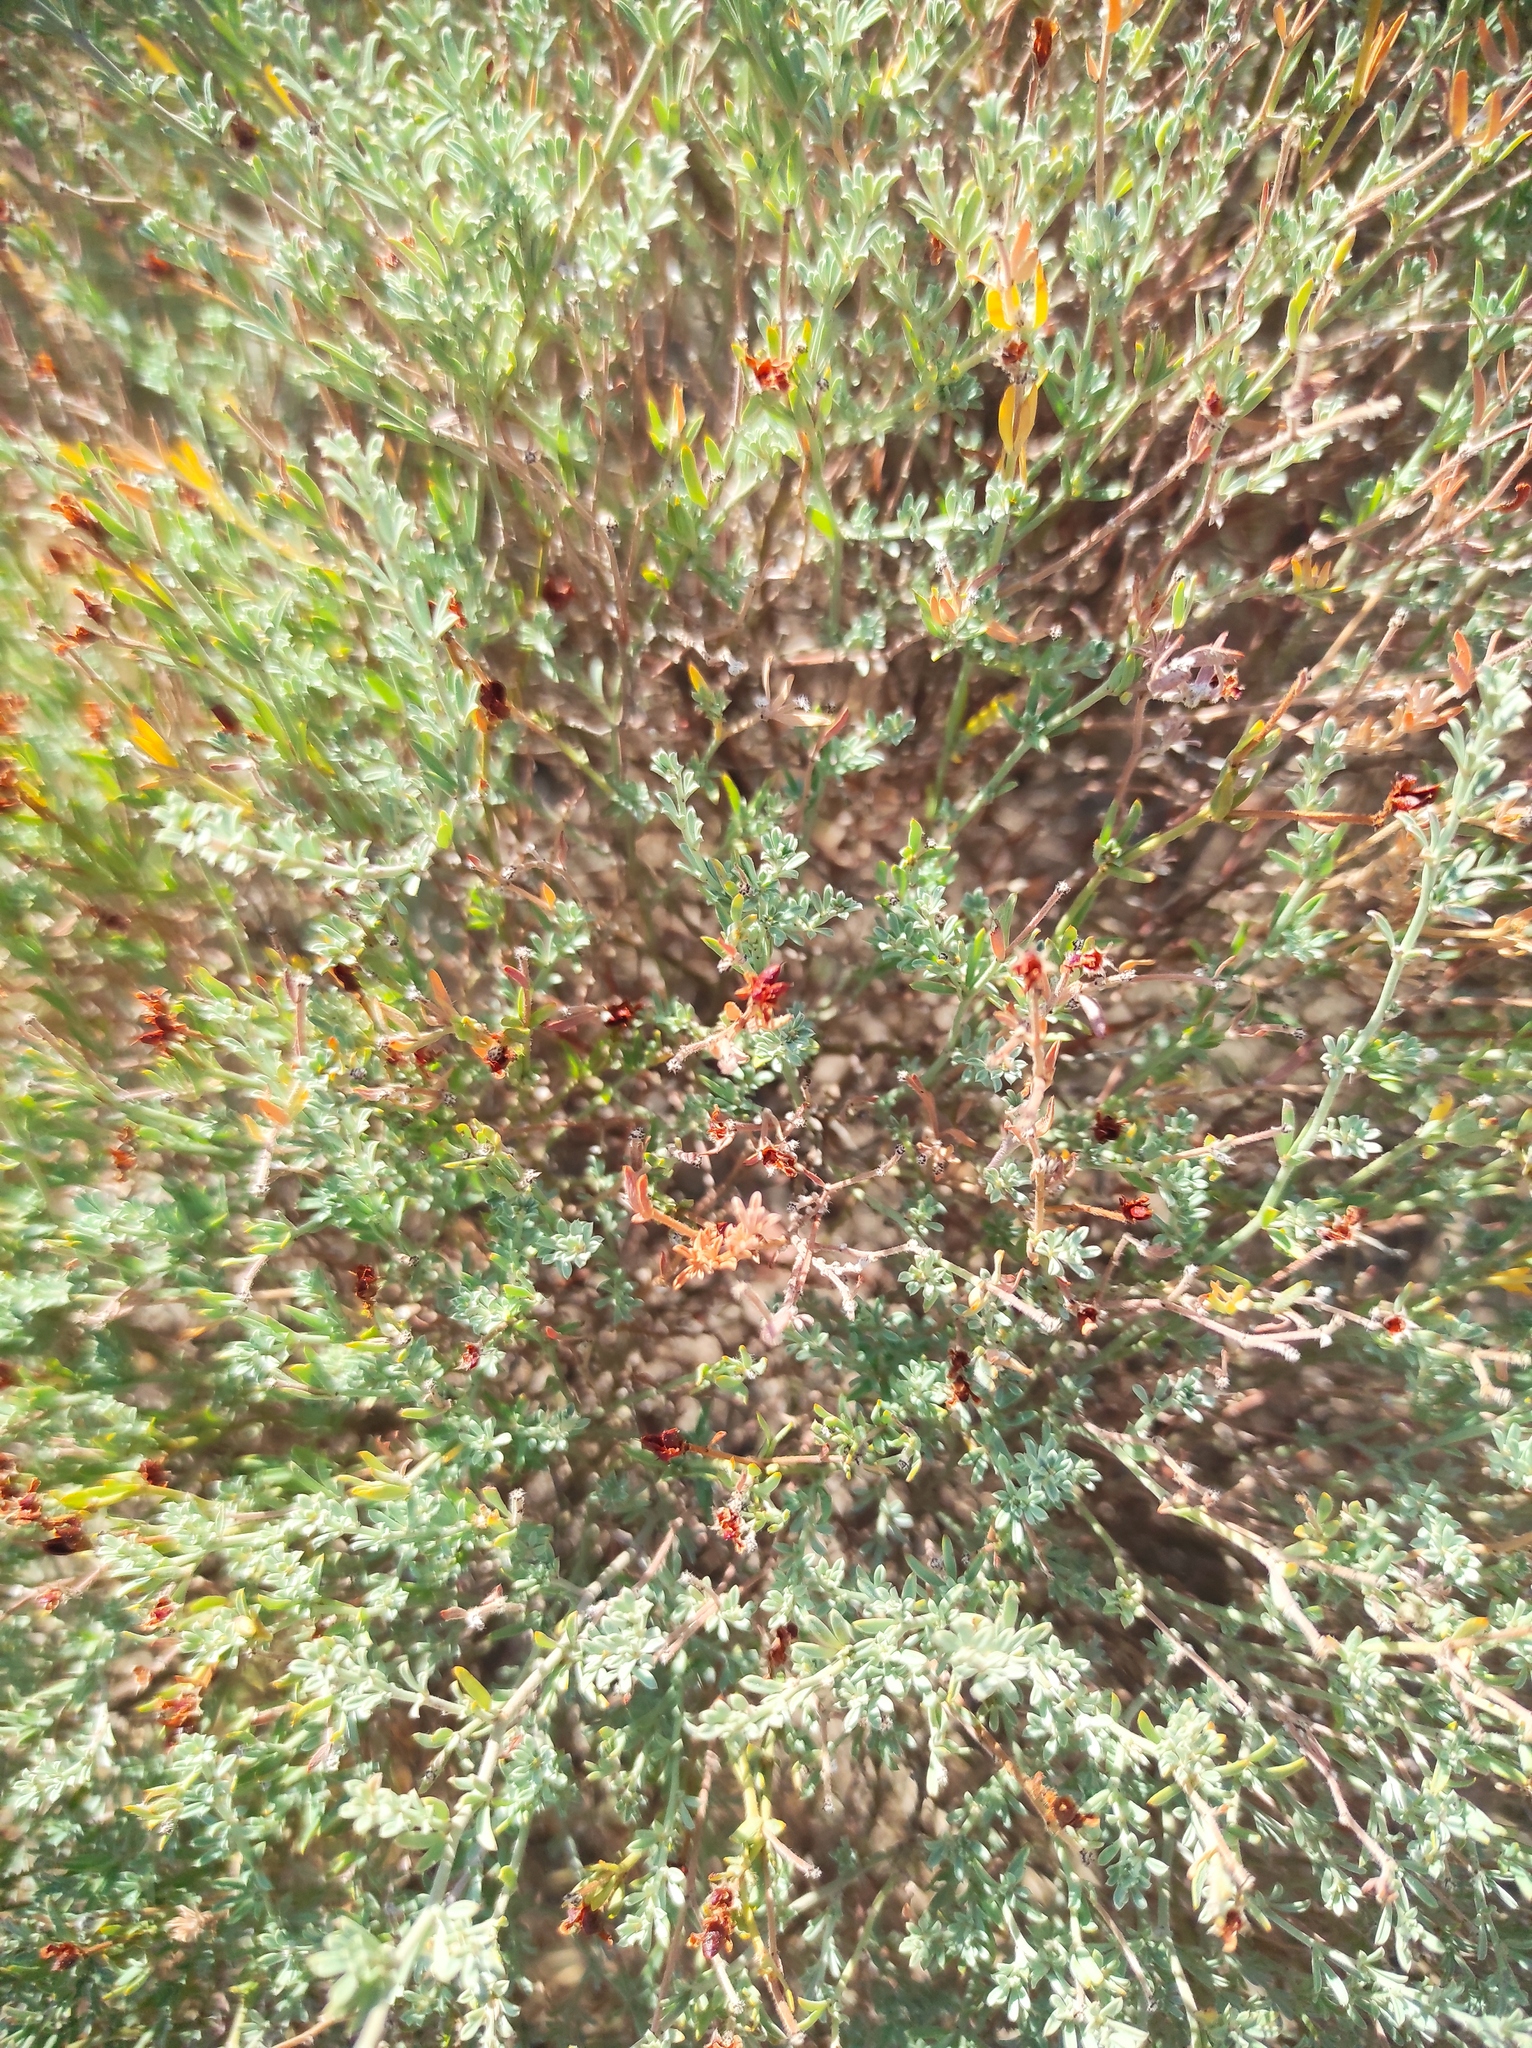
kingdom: Plantae
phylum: Tracheophyta
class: Magnoliopsida
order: Fabales
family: Fabaceae
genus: Lotus
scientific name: Lotus dorycnium
